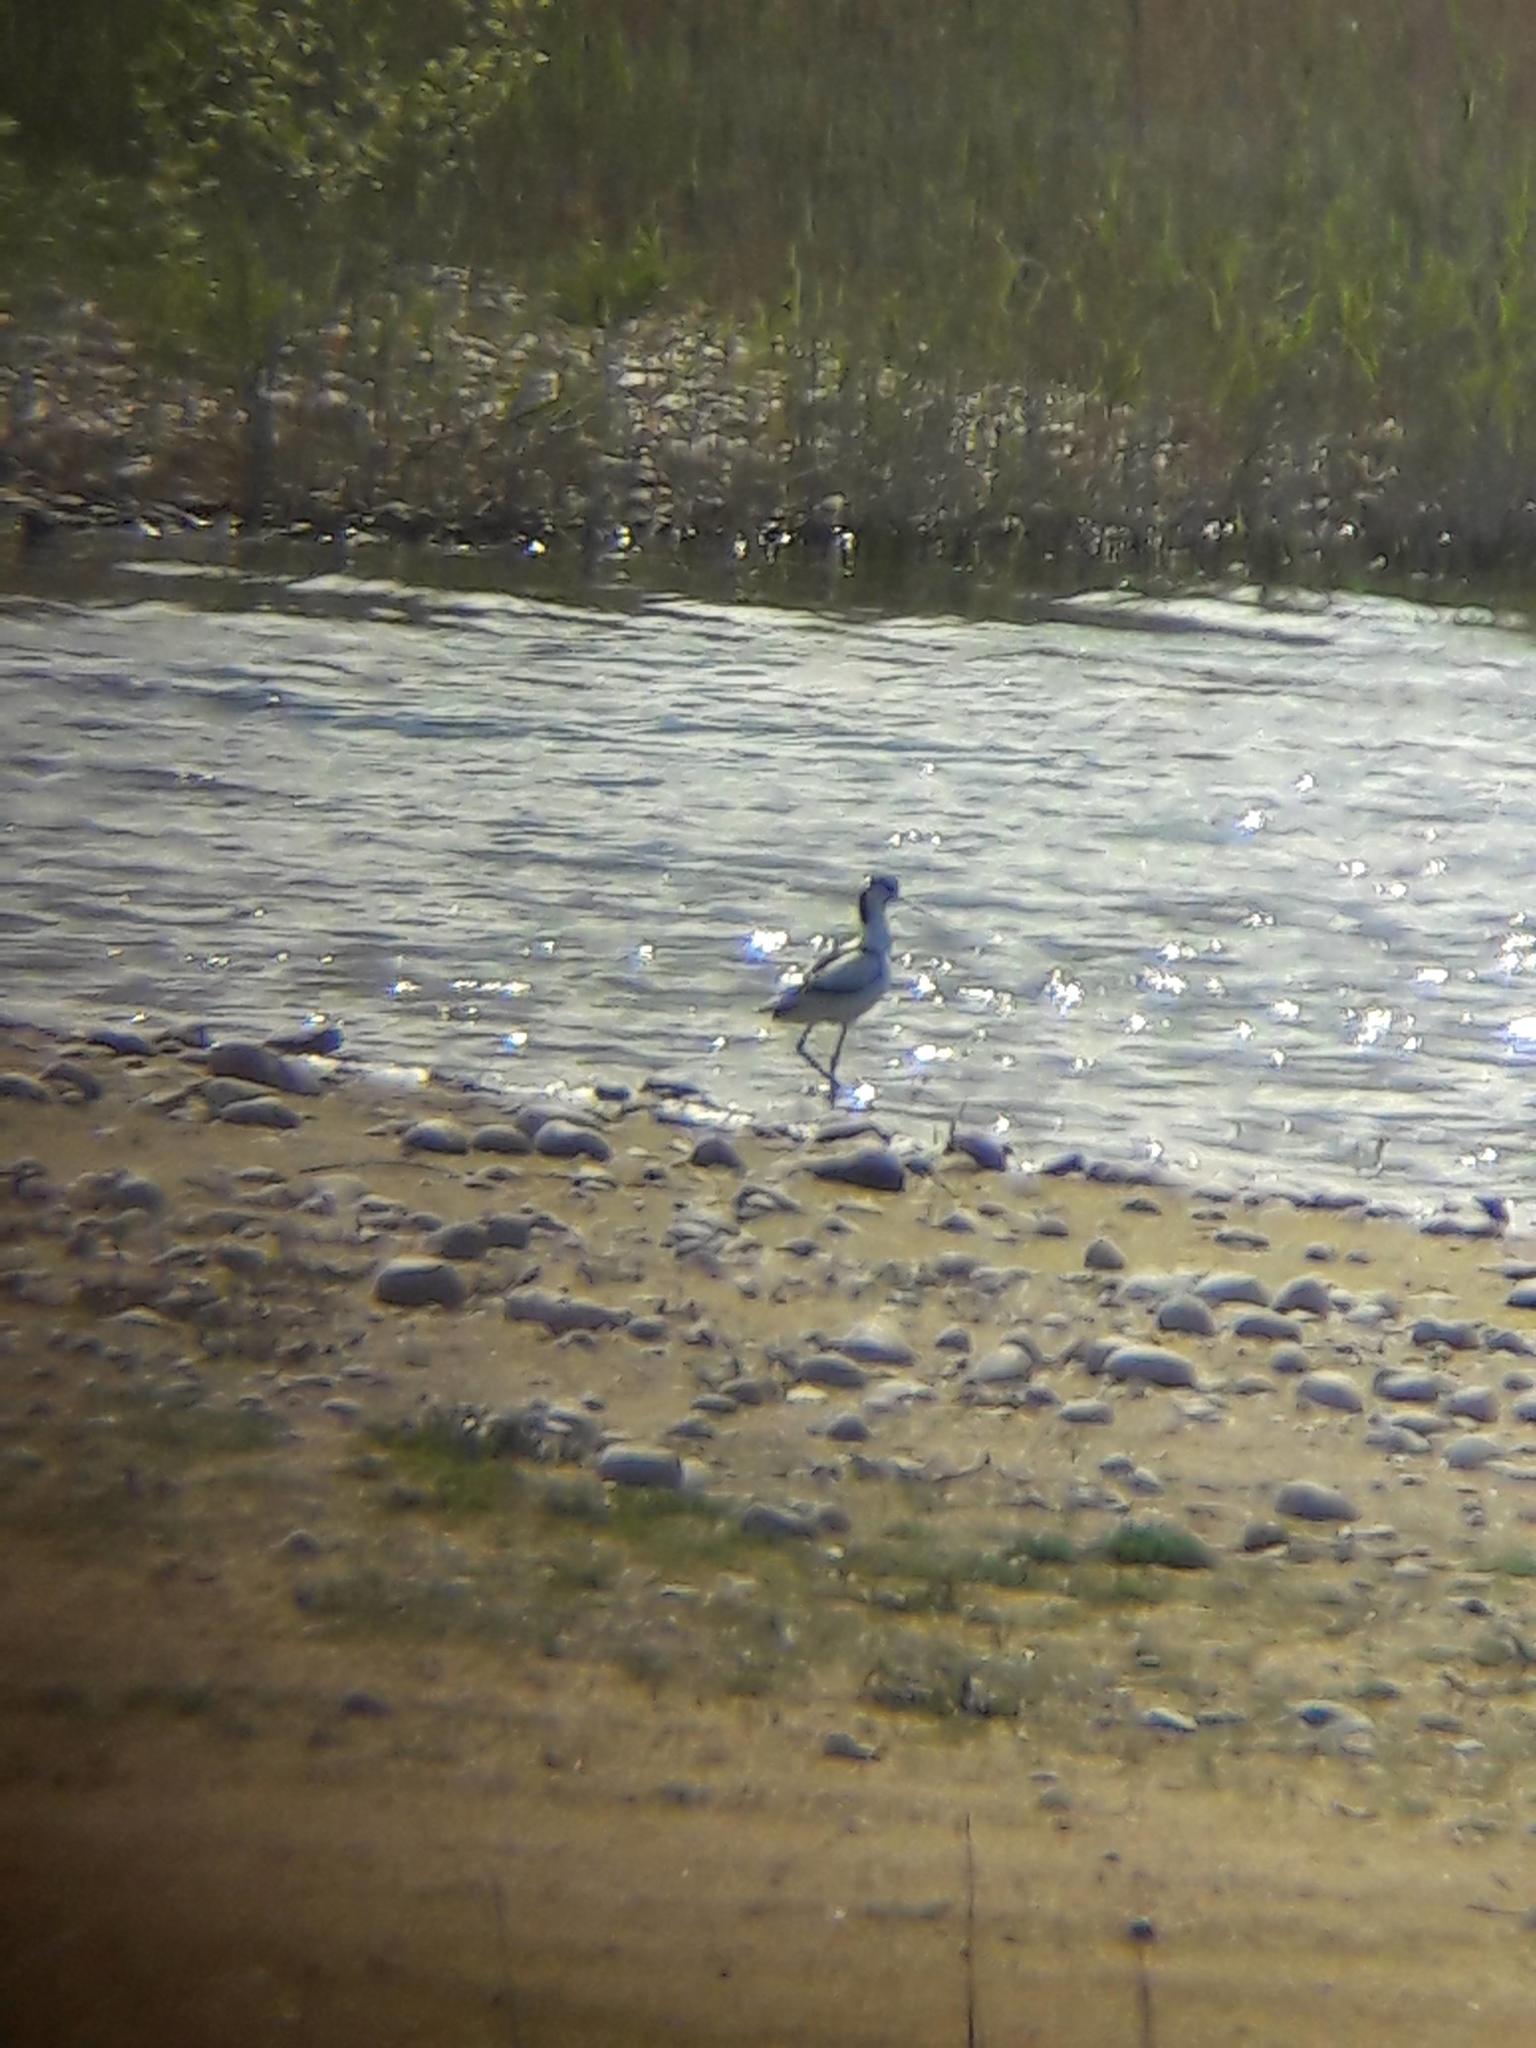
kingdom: Animalia
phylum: Chordata
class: Aves
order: Charadriiformes
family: Recurvirostridae
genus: Recurvirostra
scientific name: Recurvirostra avosetta
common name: Pied avocet
